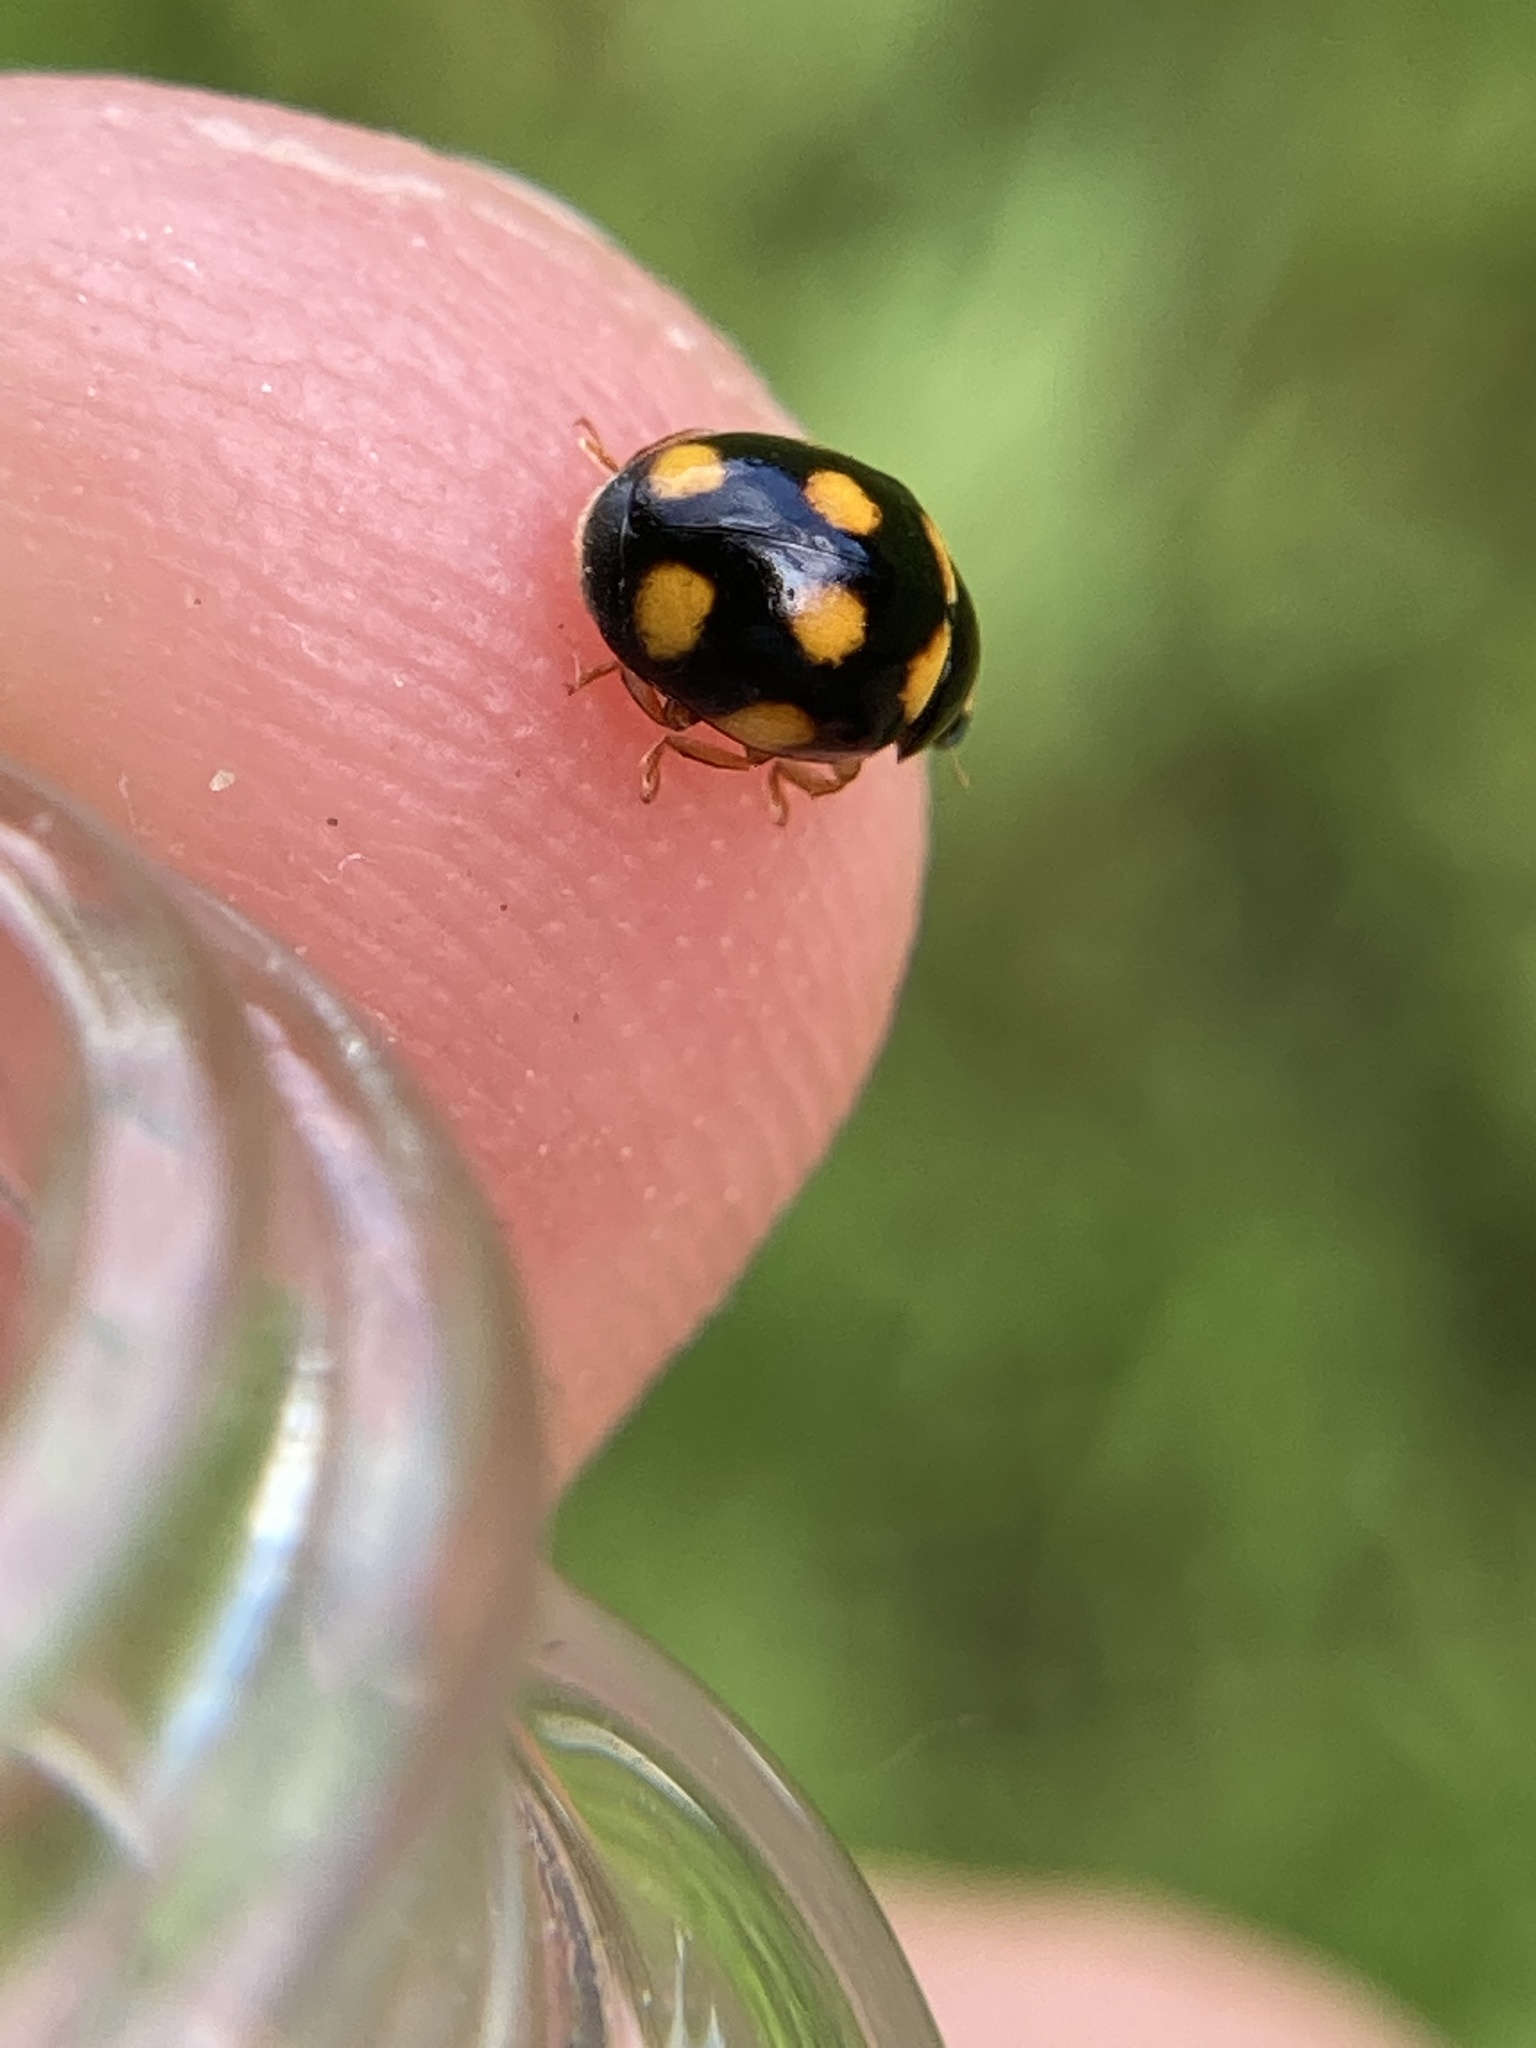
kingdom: Animalia
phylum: Arthropoda
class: Insecta
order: Coleoptera
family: Coccinellidae
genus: Brachiacantha
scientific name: Brachiacantha ursina
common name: Ursine spurleg lady beetle
